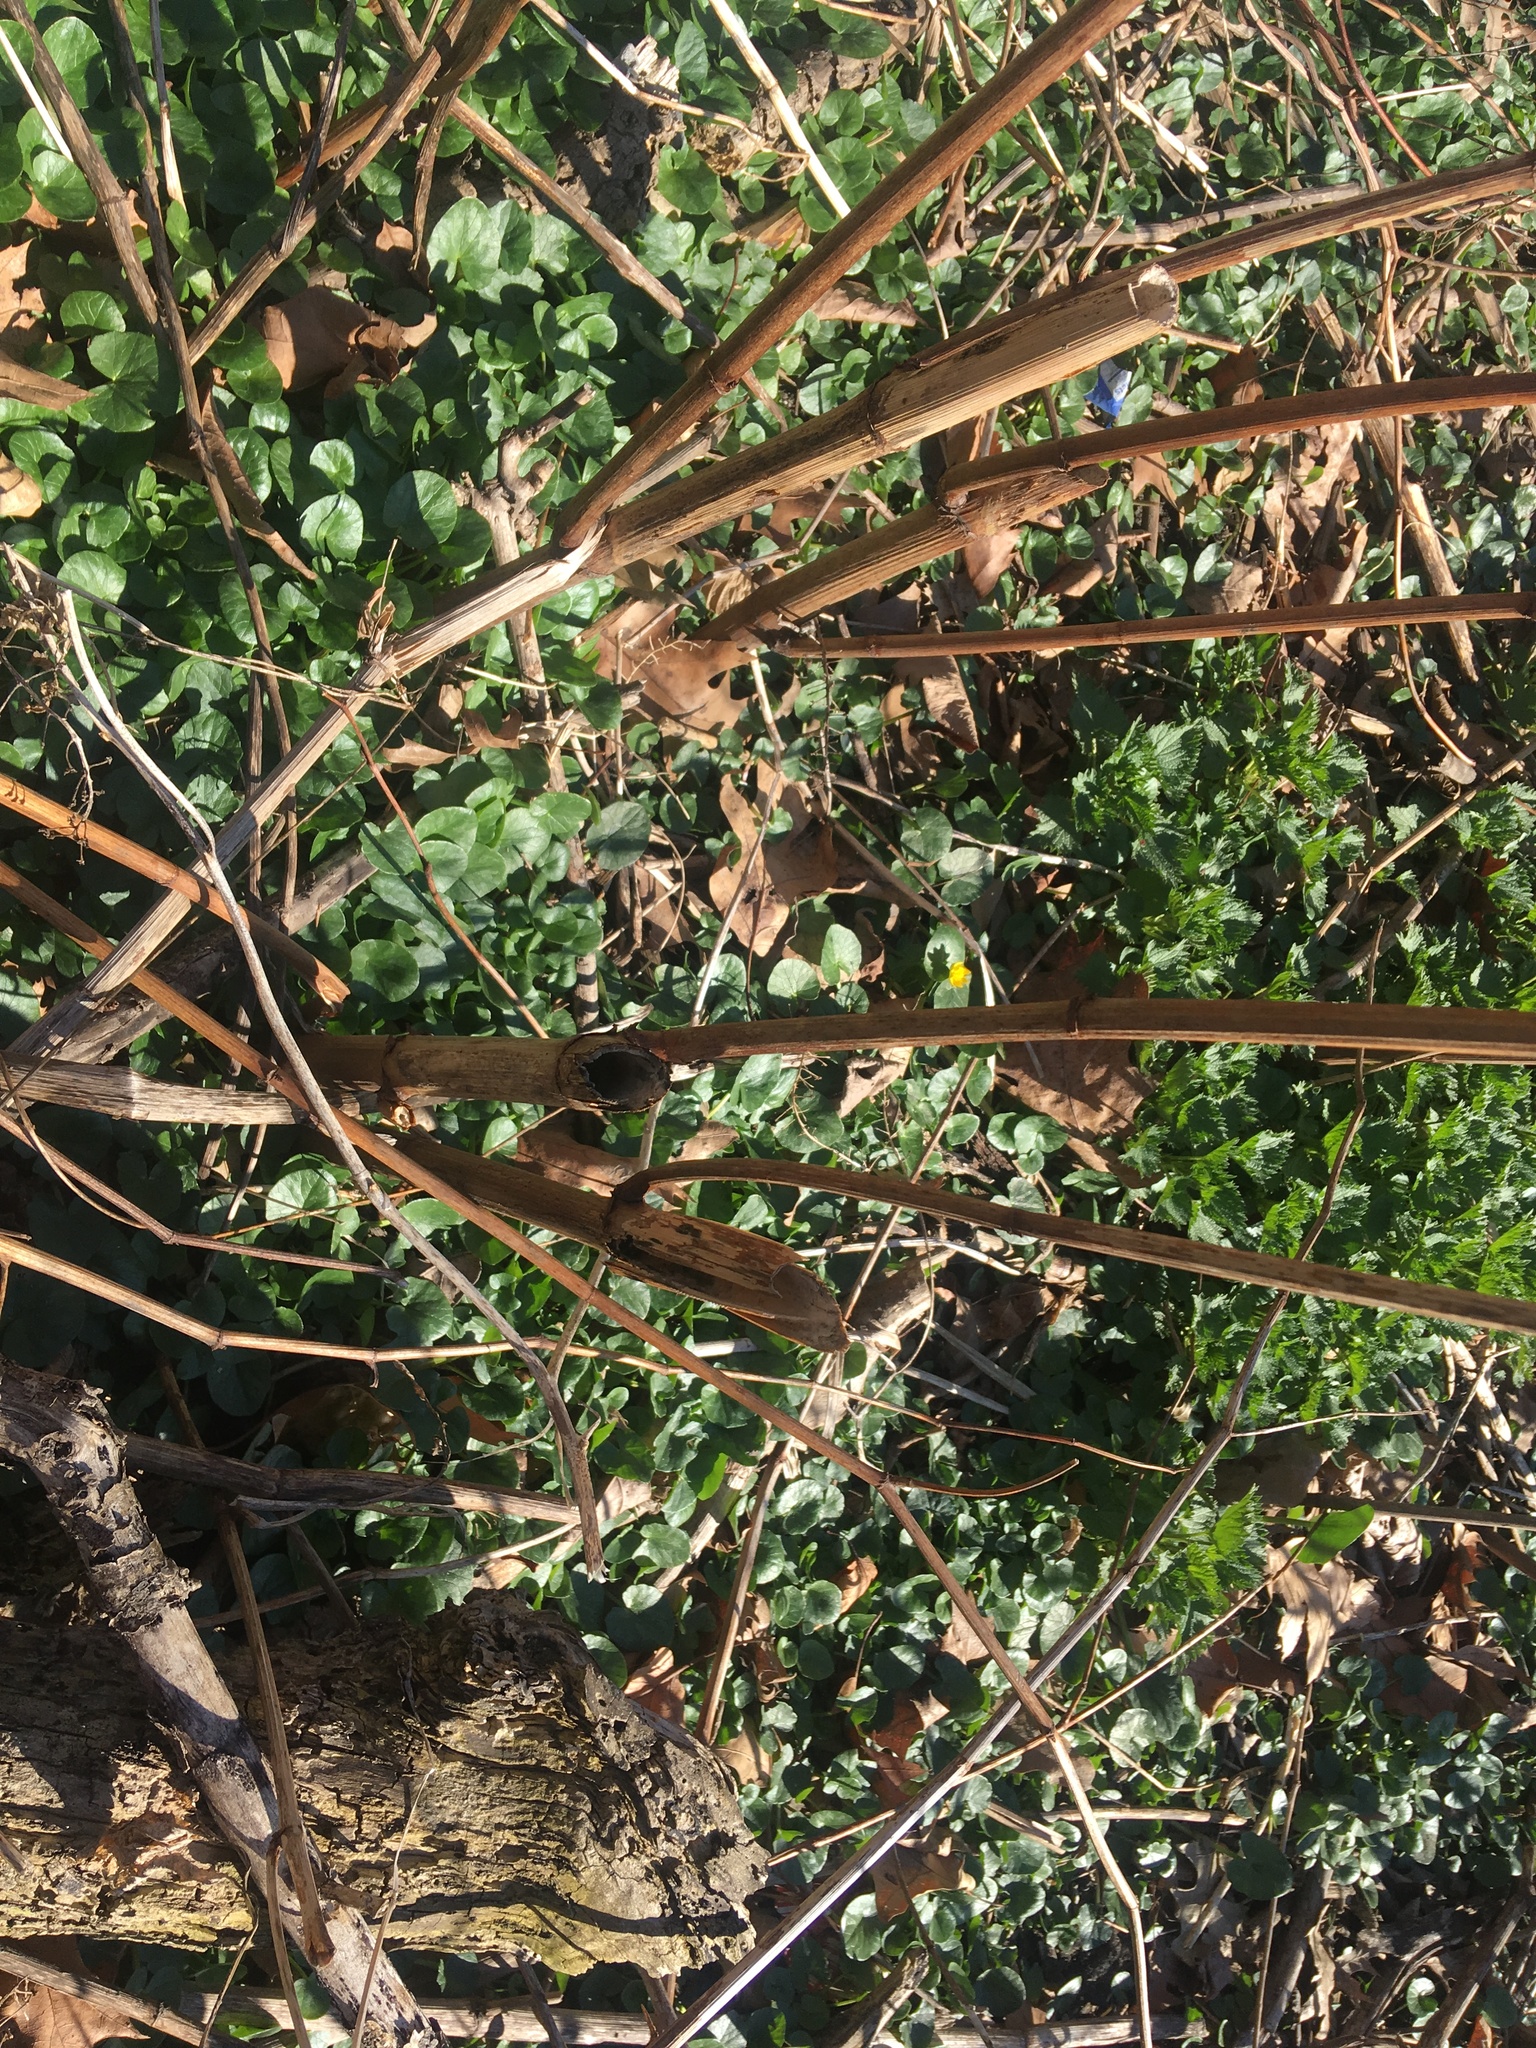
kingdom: Plantae
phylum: Tracheophyta
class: Magnoliopsida
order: Ranunculales
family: Ranunculaceae
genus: Ficaria
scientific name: Ficaria verna
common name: Lesser celandine
